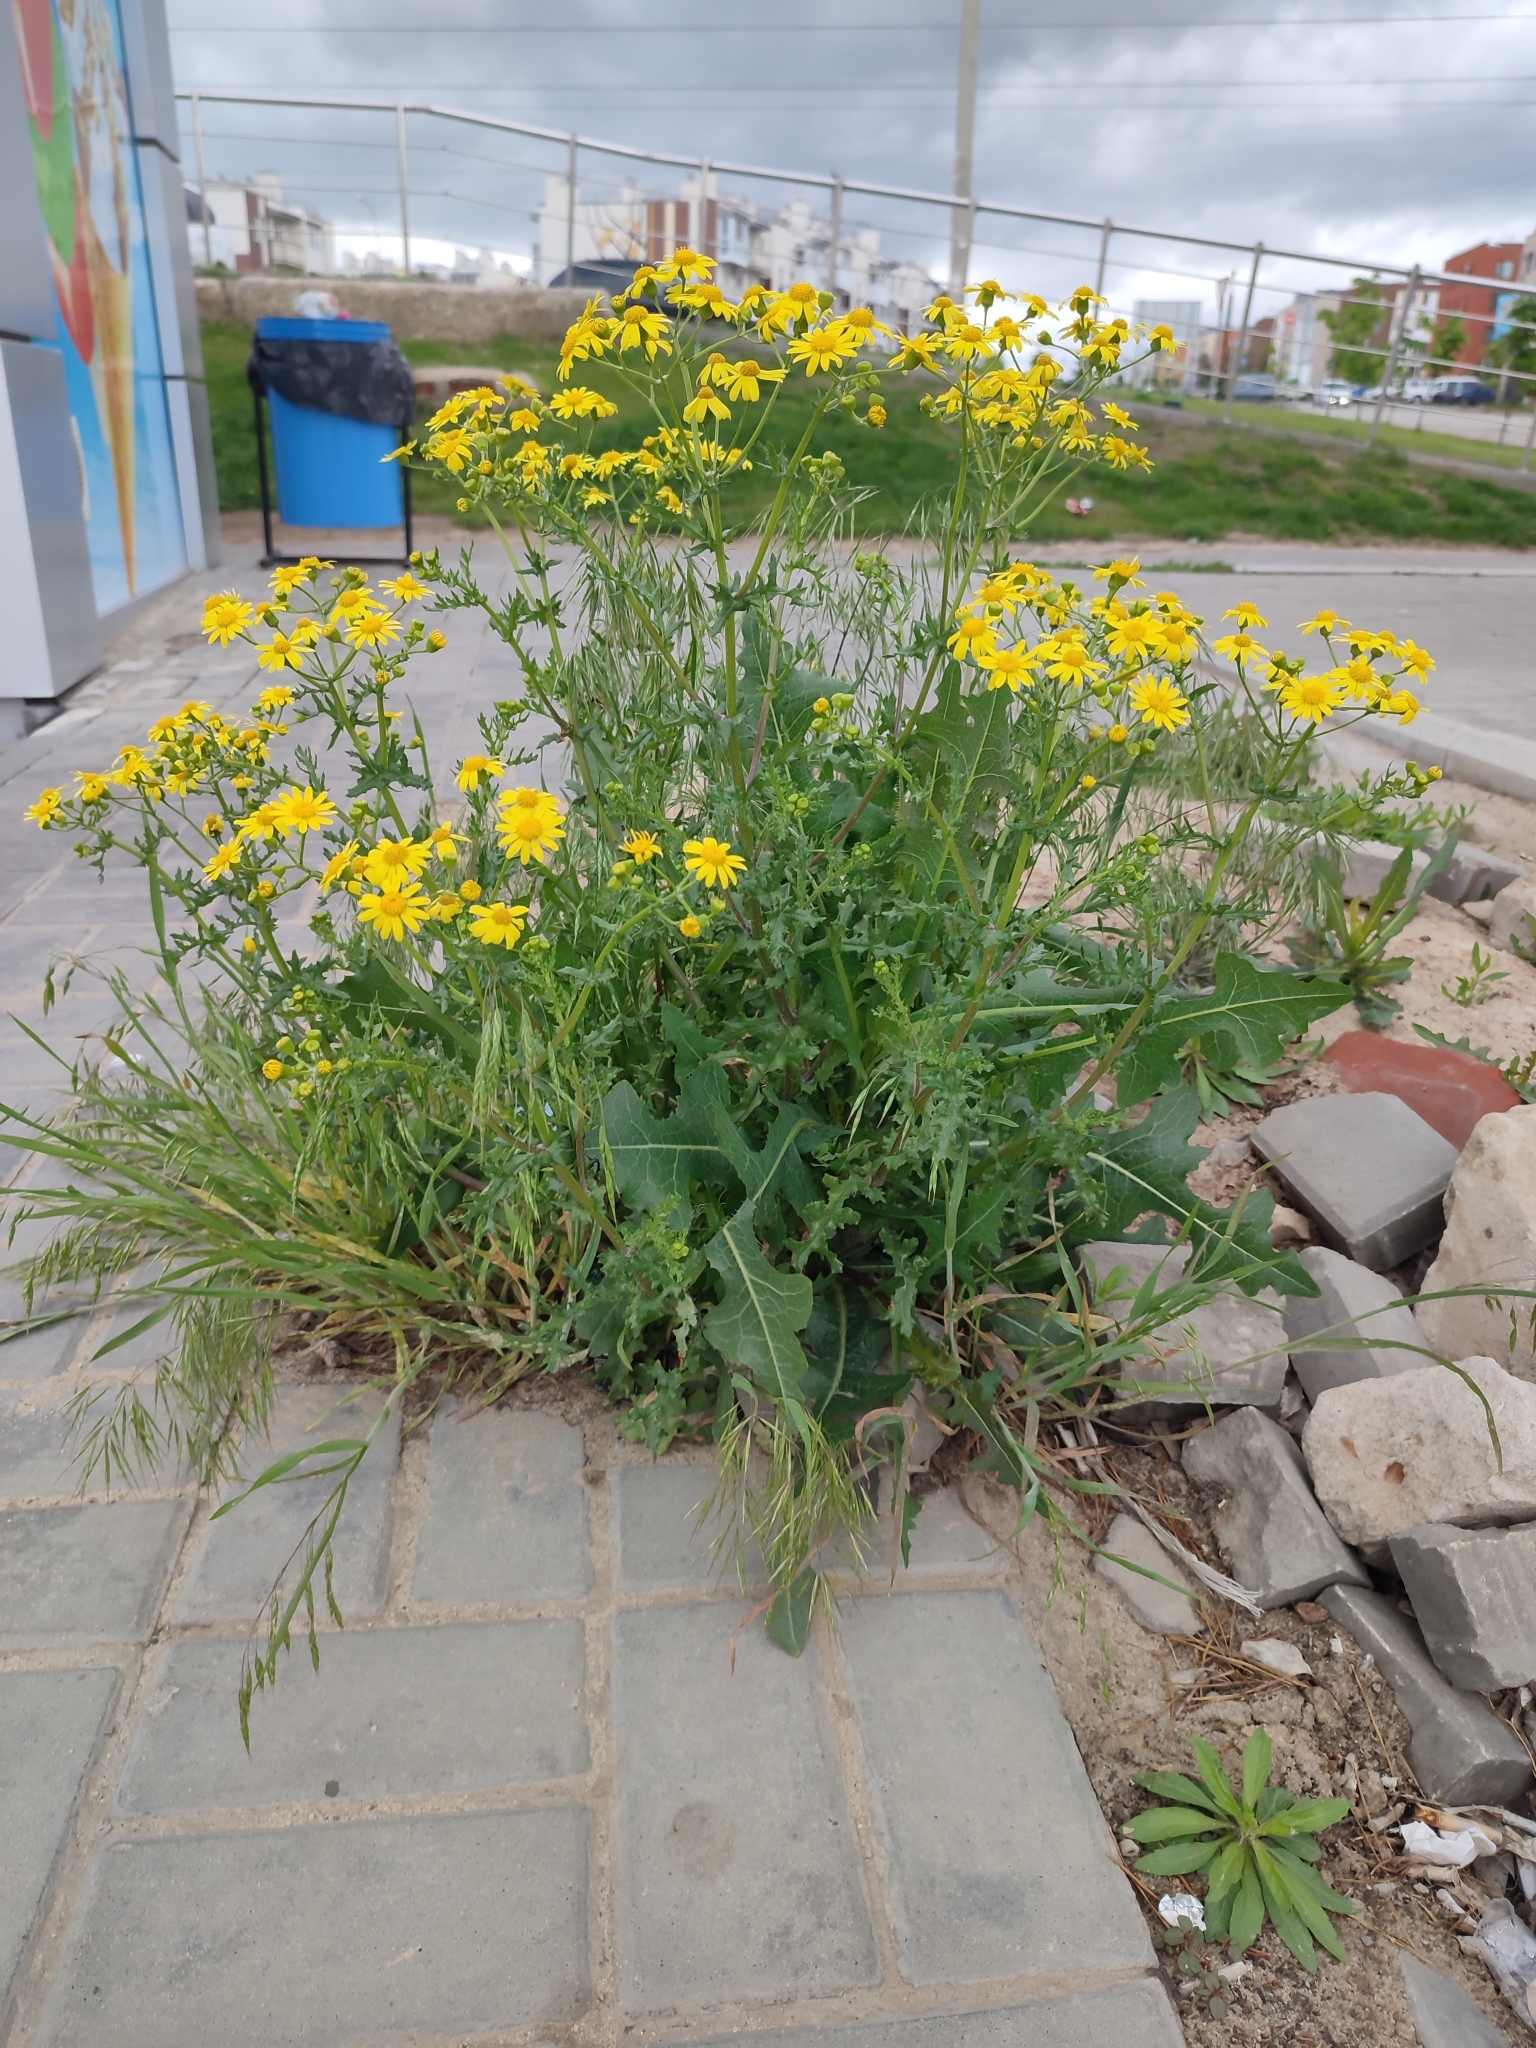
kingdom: Plantae
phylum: Tracheophyta
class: Magnoliopsida
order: Asterales
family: Asteraceae
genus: Senecio
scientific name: Senecio vernalis
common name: Eastern groundsel
